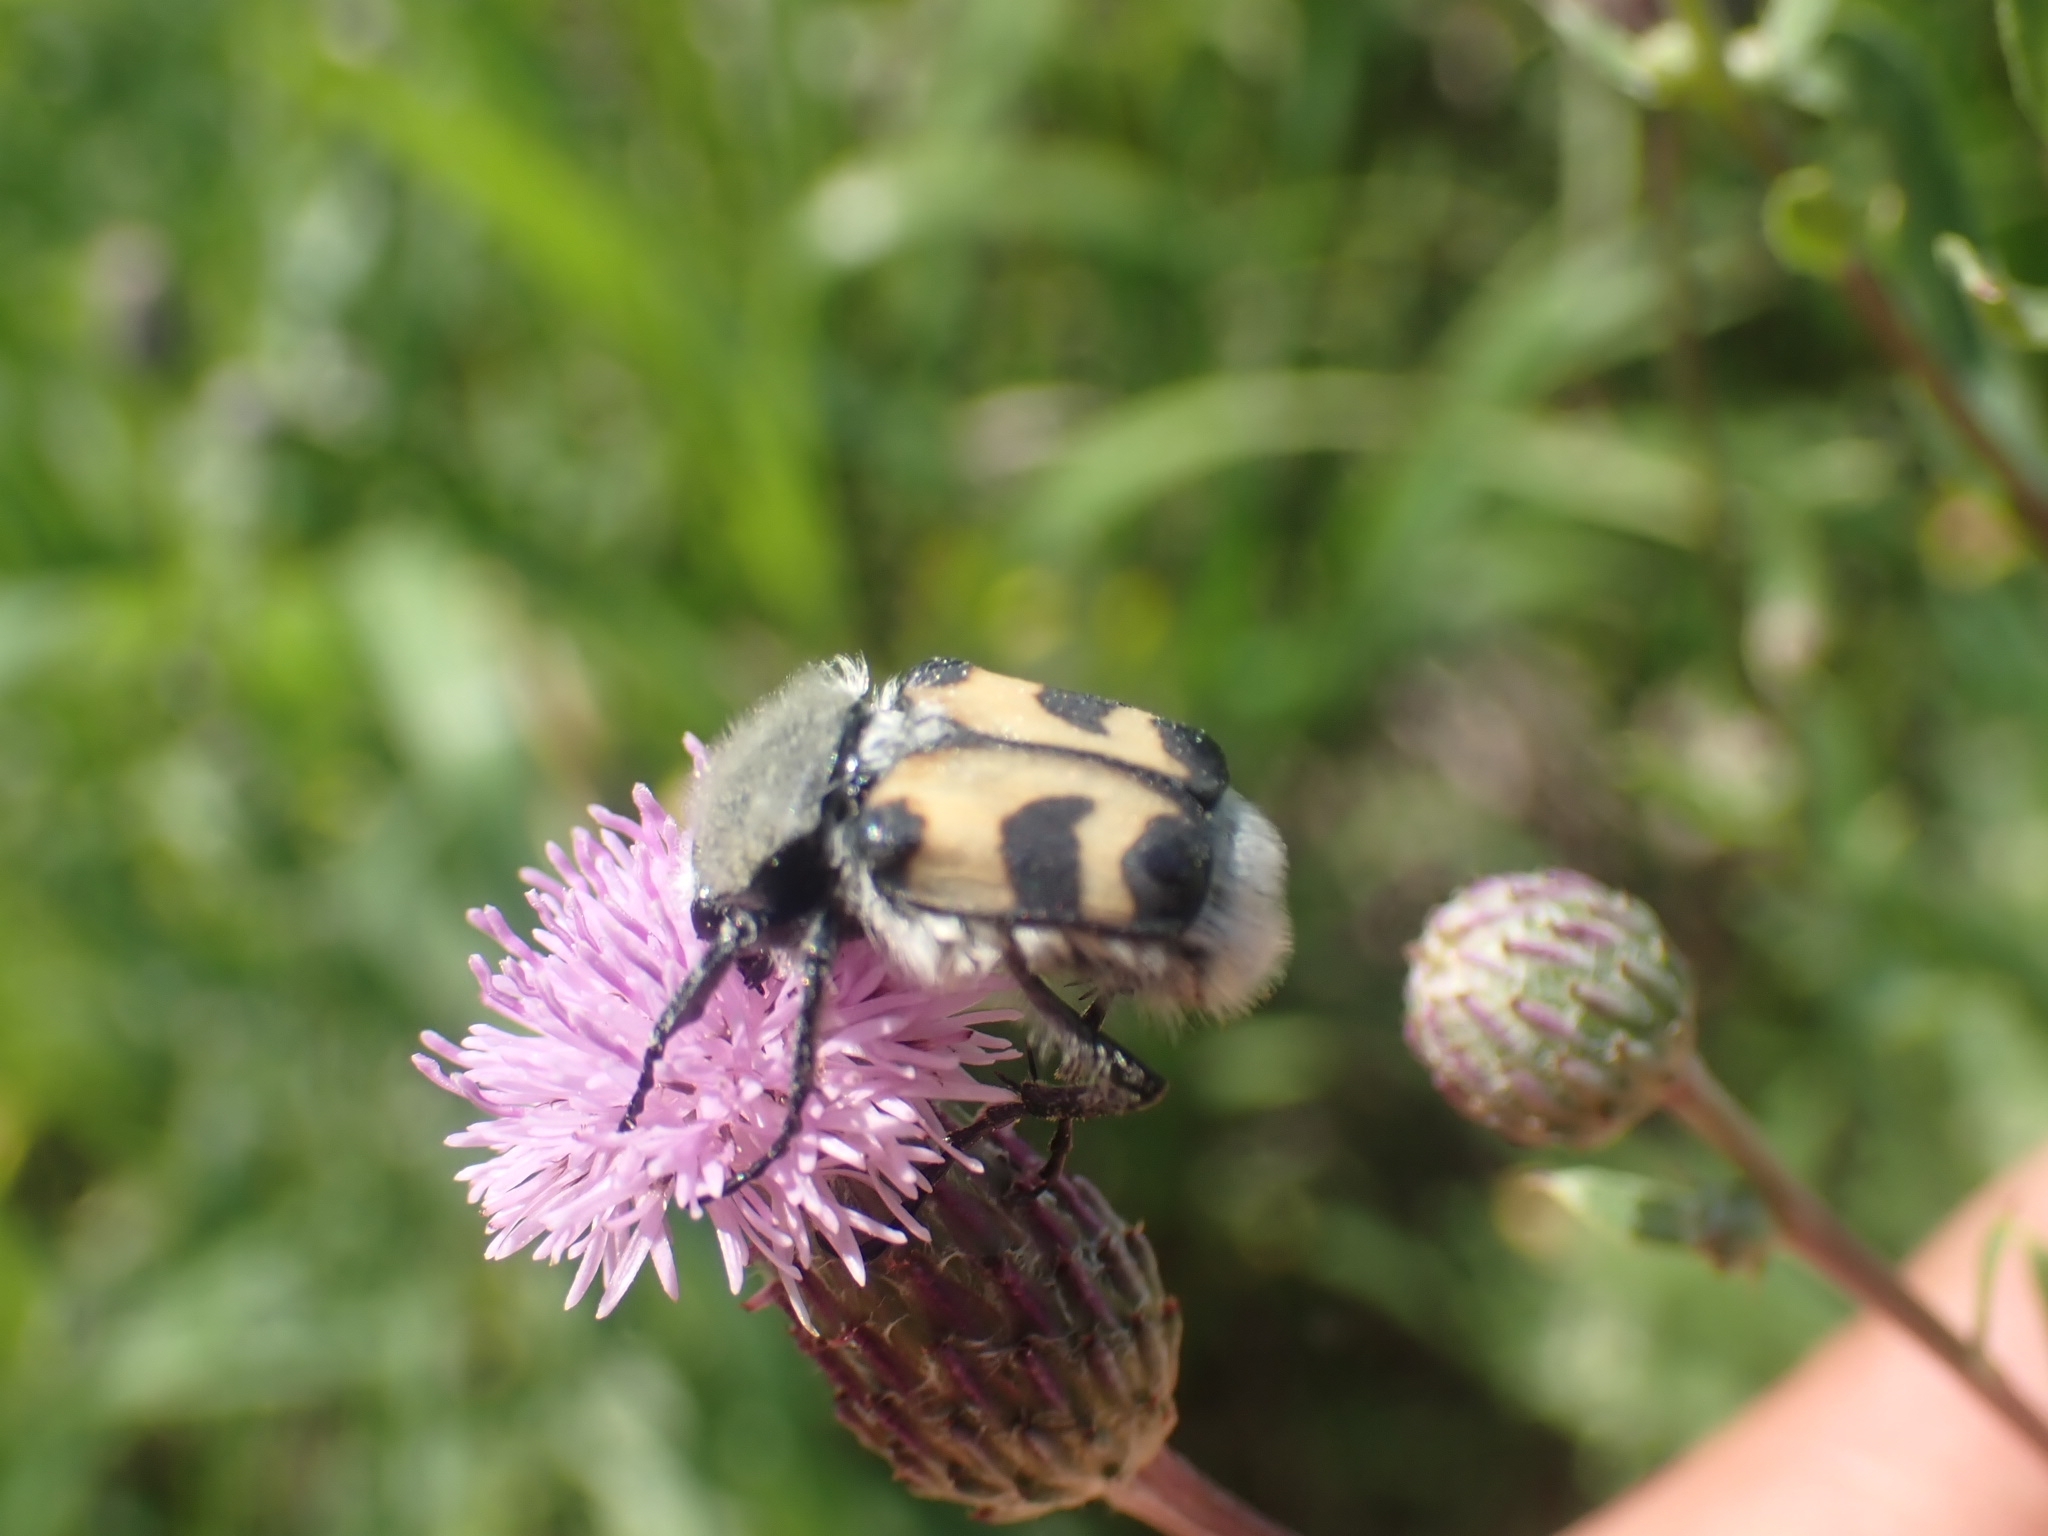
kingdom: Animalia
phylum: Arthropoda
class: Insecta
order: Coleoptera
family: Scarabaeidae
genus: Trichius
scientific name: Trichius fasciatus
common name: Bee beetle
